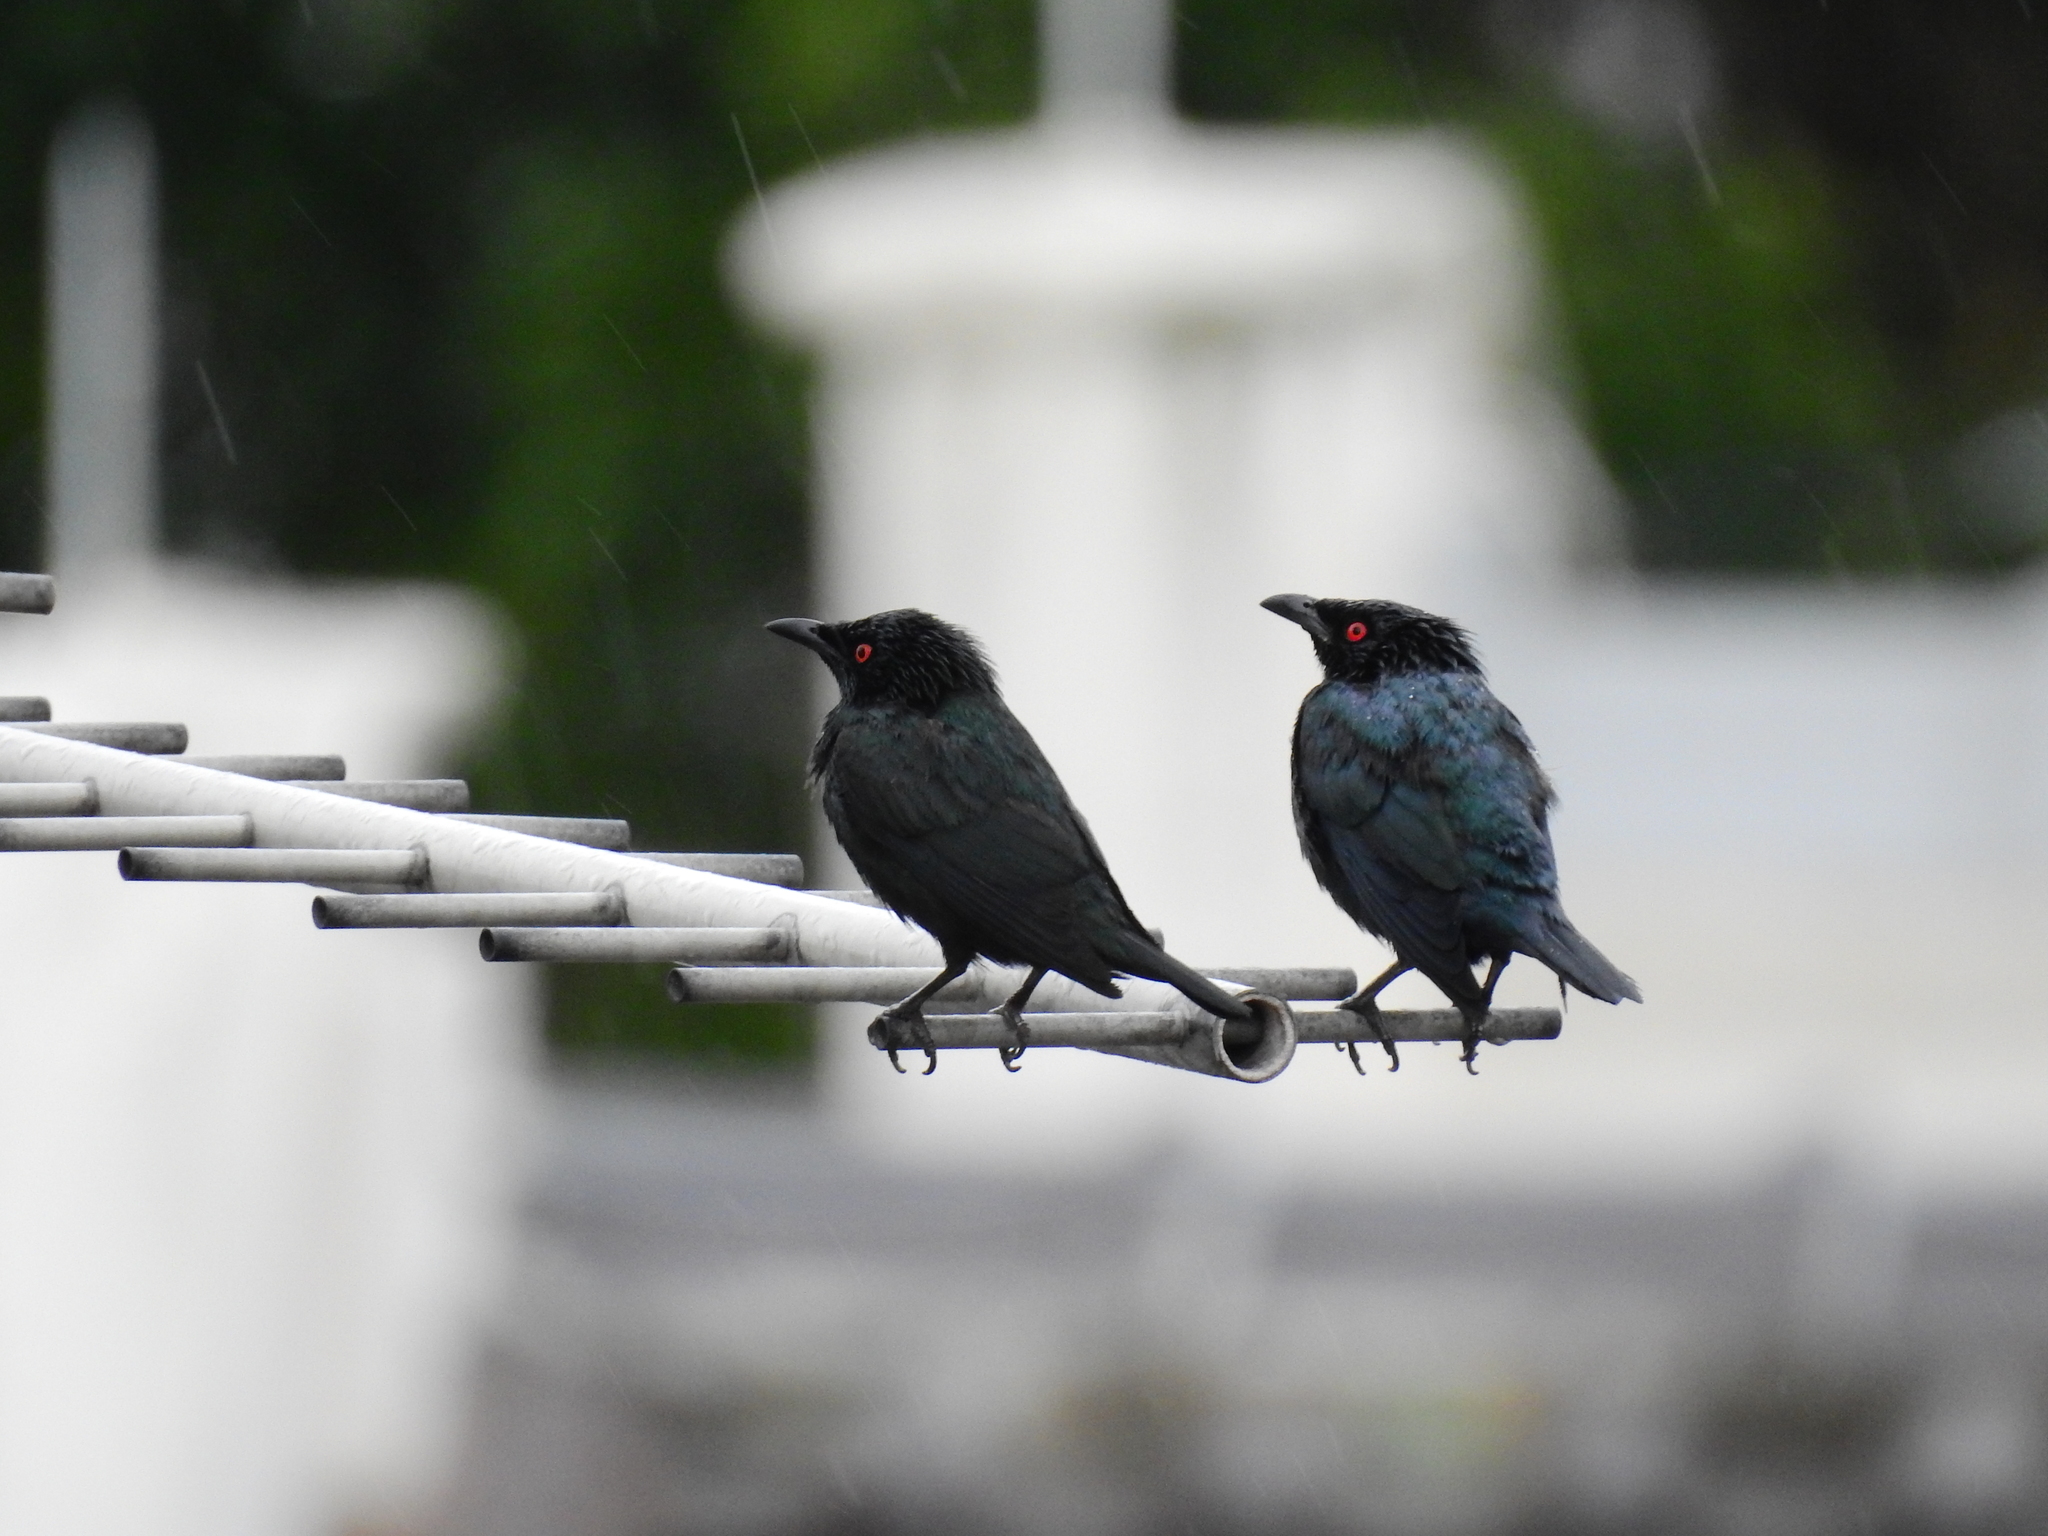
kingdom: Animalia
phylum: Chordata
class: Aves
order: Passeriformes
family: Sturnidae
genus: Aplonis
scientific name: Aplonis panayensis
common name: Asian glossy starling
